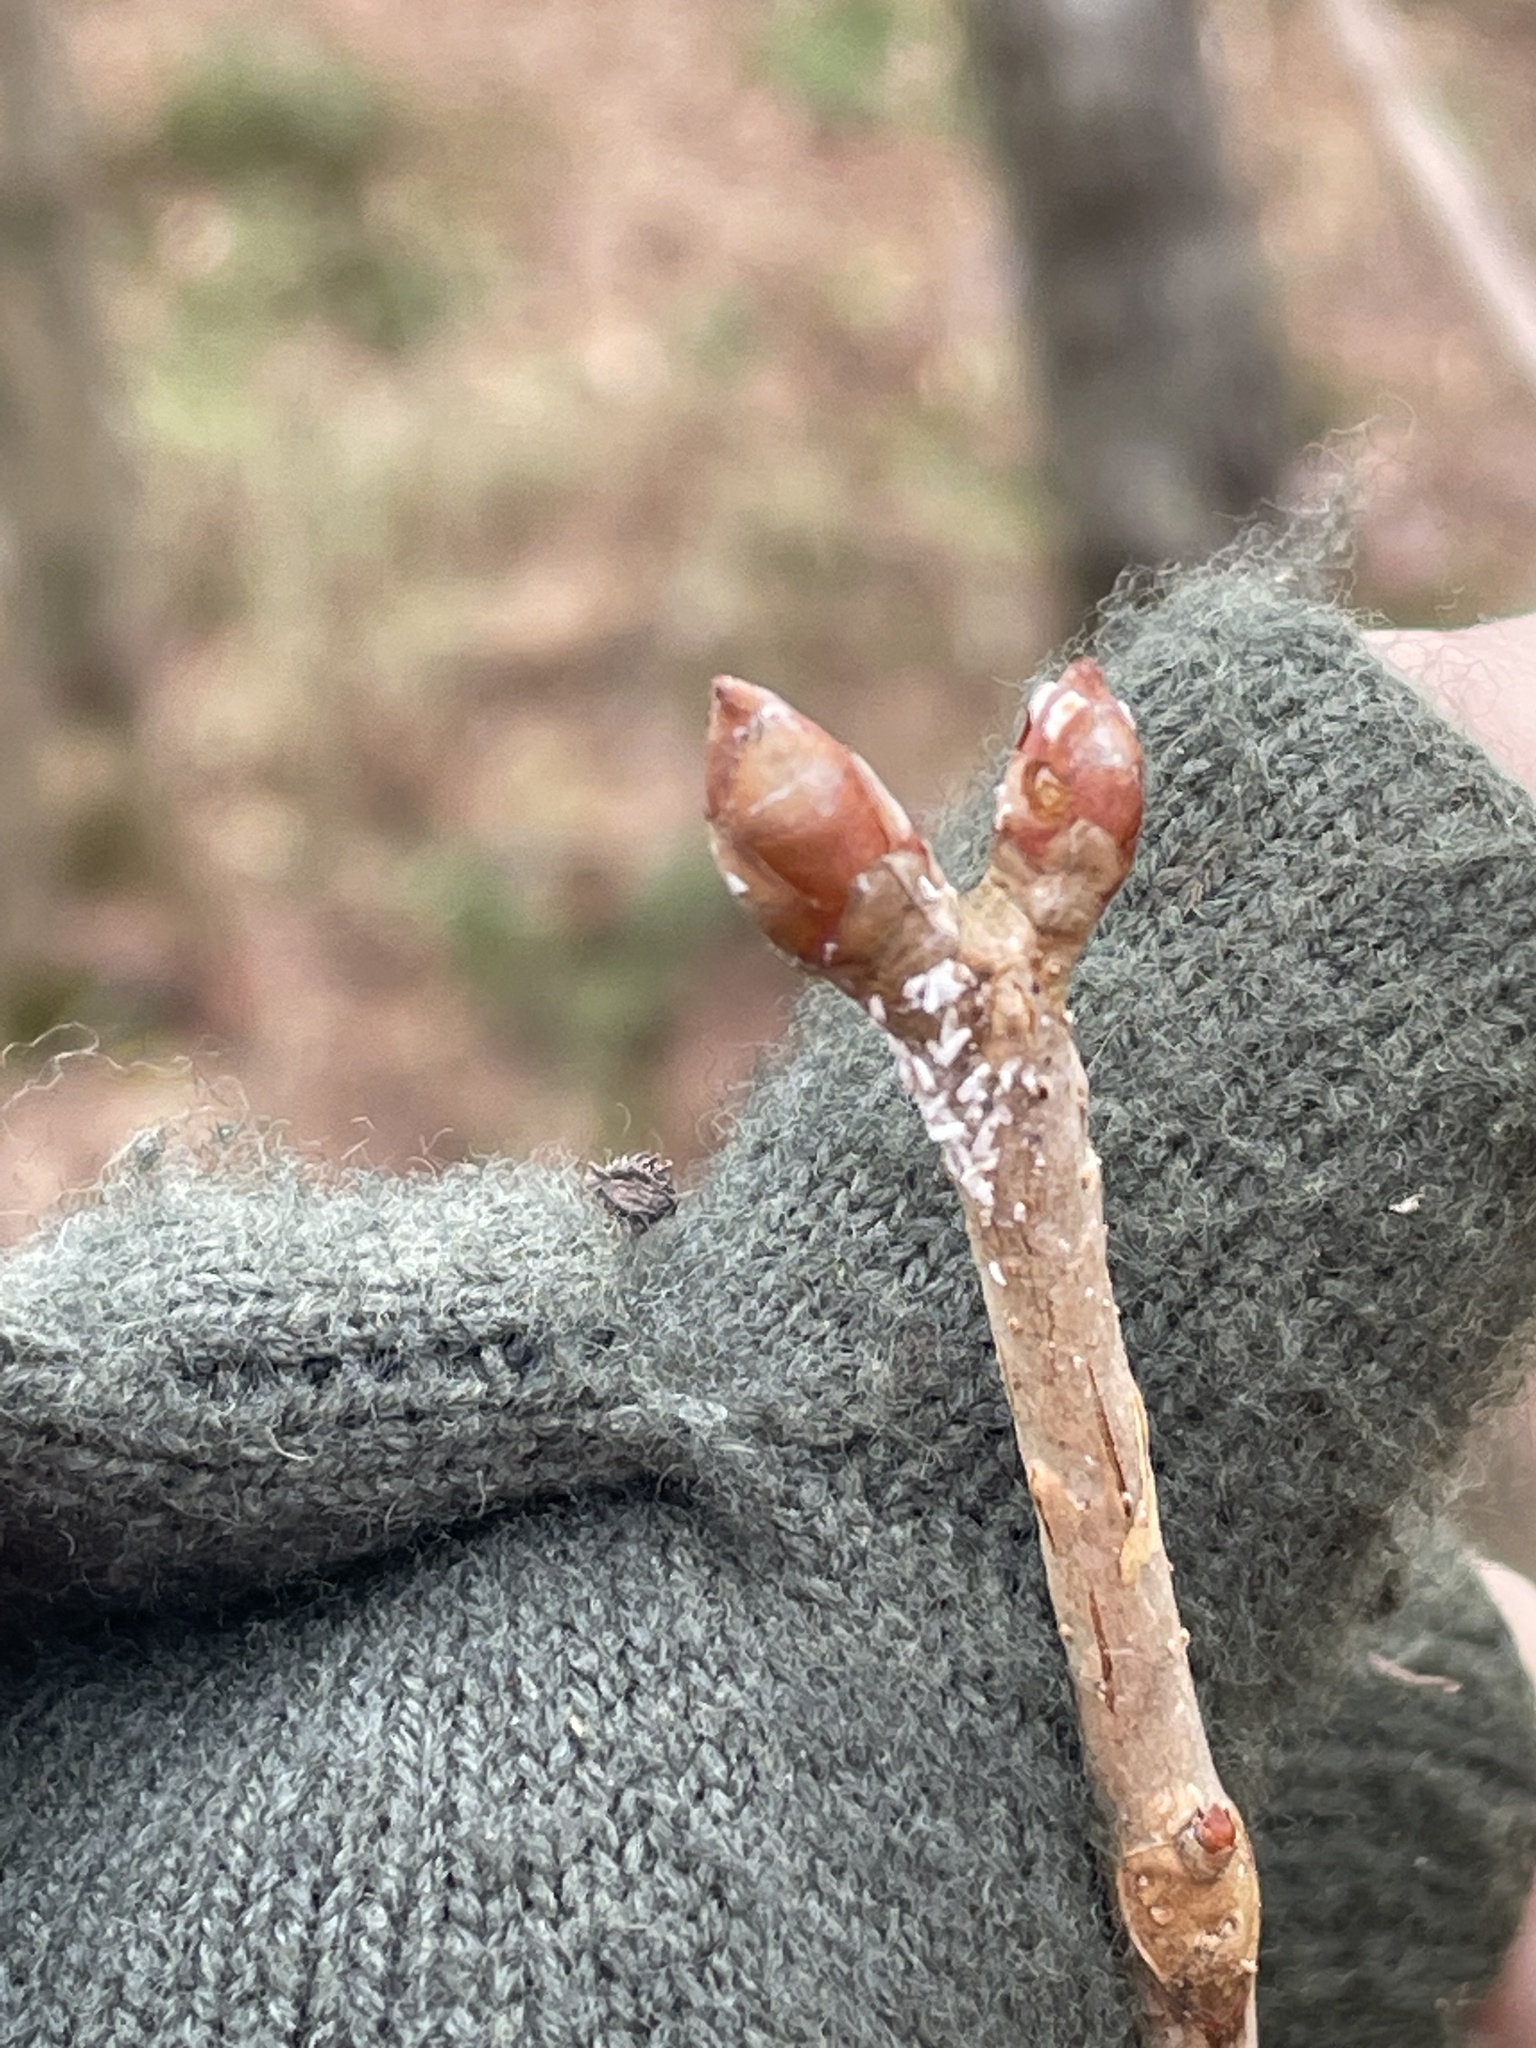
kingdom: Plantae
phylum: Tracheophyta
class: Magnoliopsida
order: Sapindales
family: Sapindaceae
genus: Aesculus
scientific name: Aesculus sylvatica
